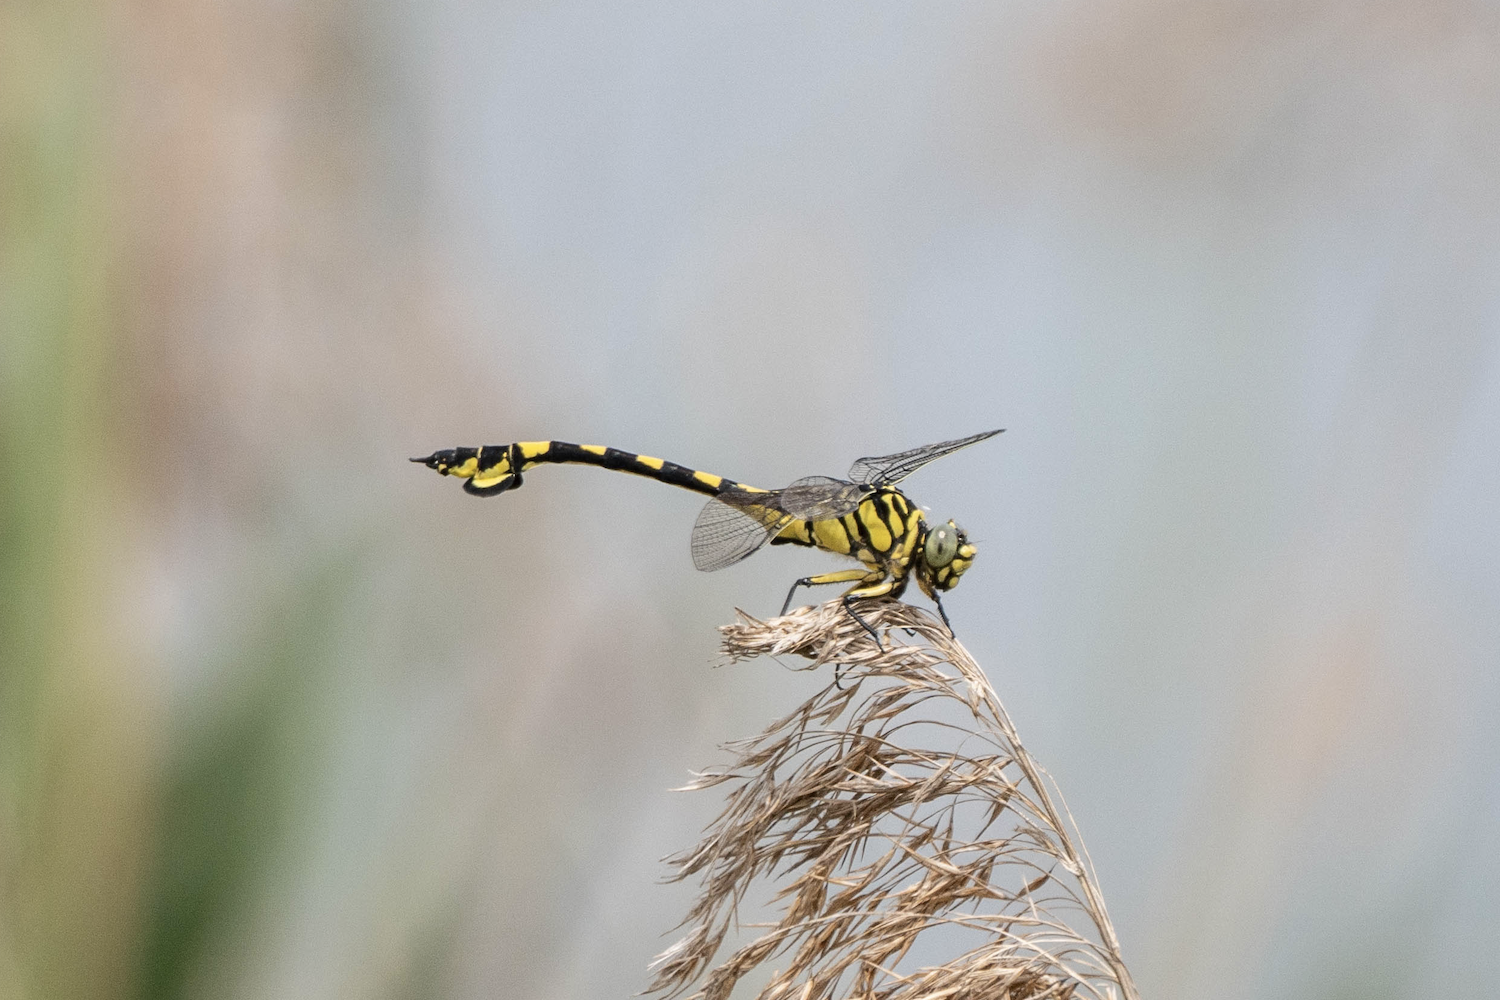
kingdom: Animalia
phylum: Arthropoda
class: Insecta
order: Odonata
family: Gomphidae
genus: Sinictinogomphus
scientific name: Sinictinogomphus clavatus
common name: Golden flangetail
